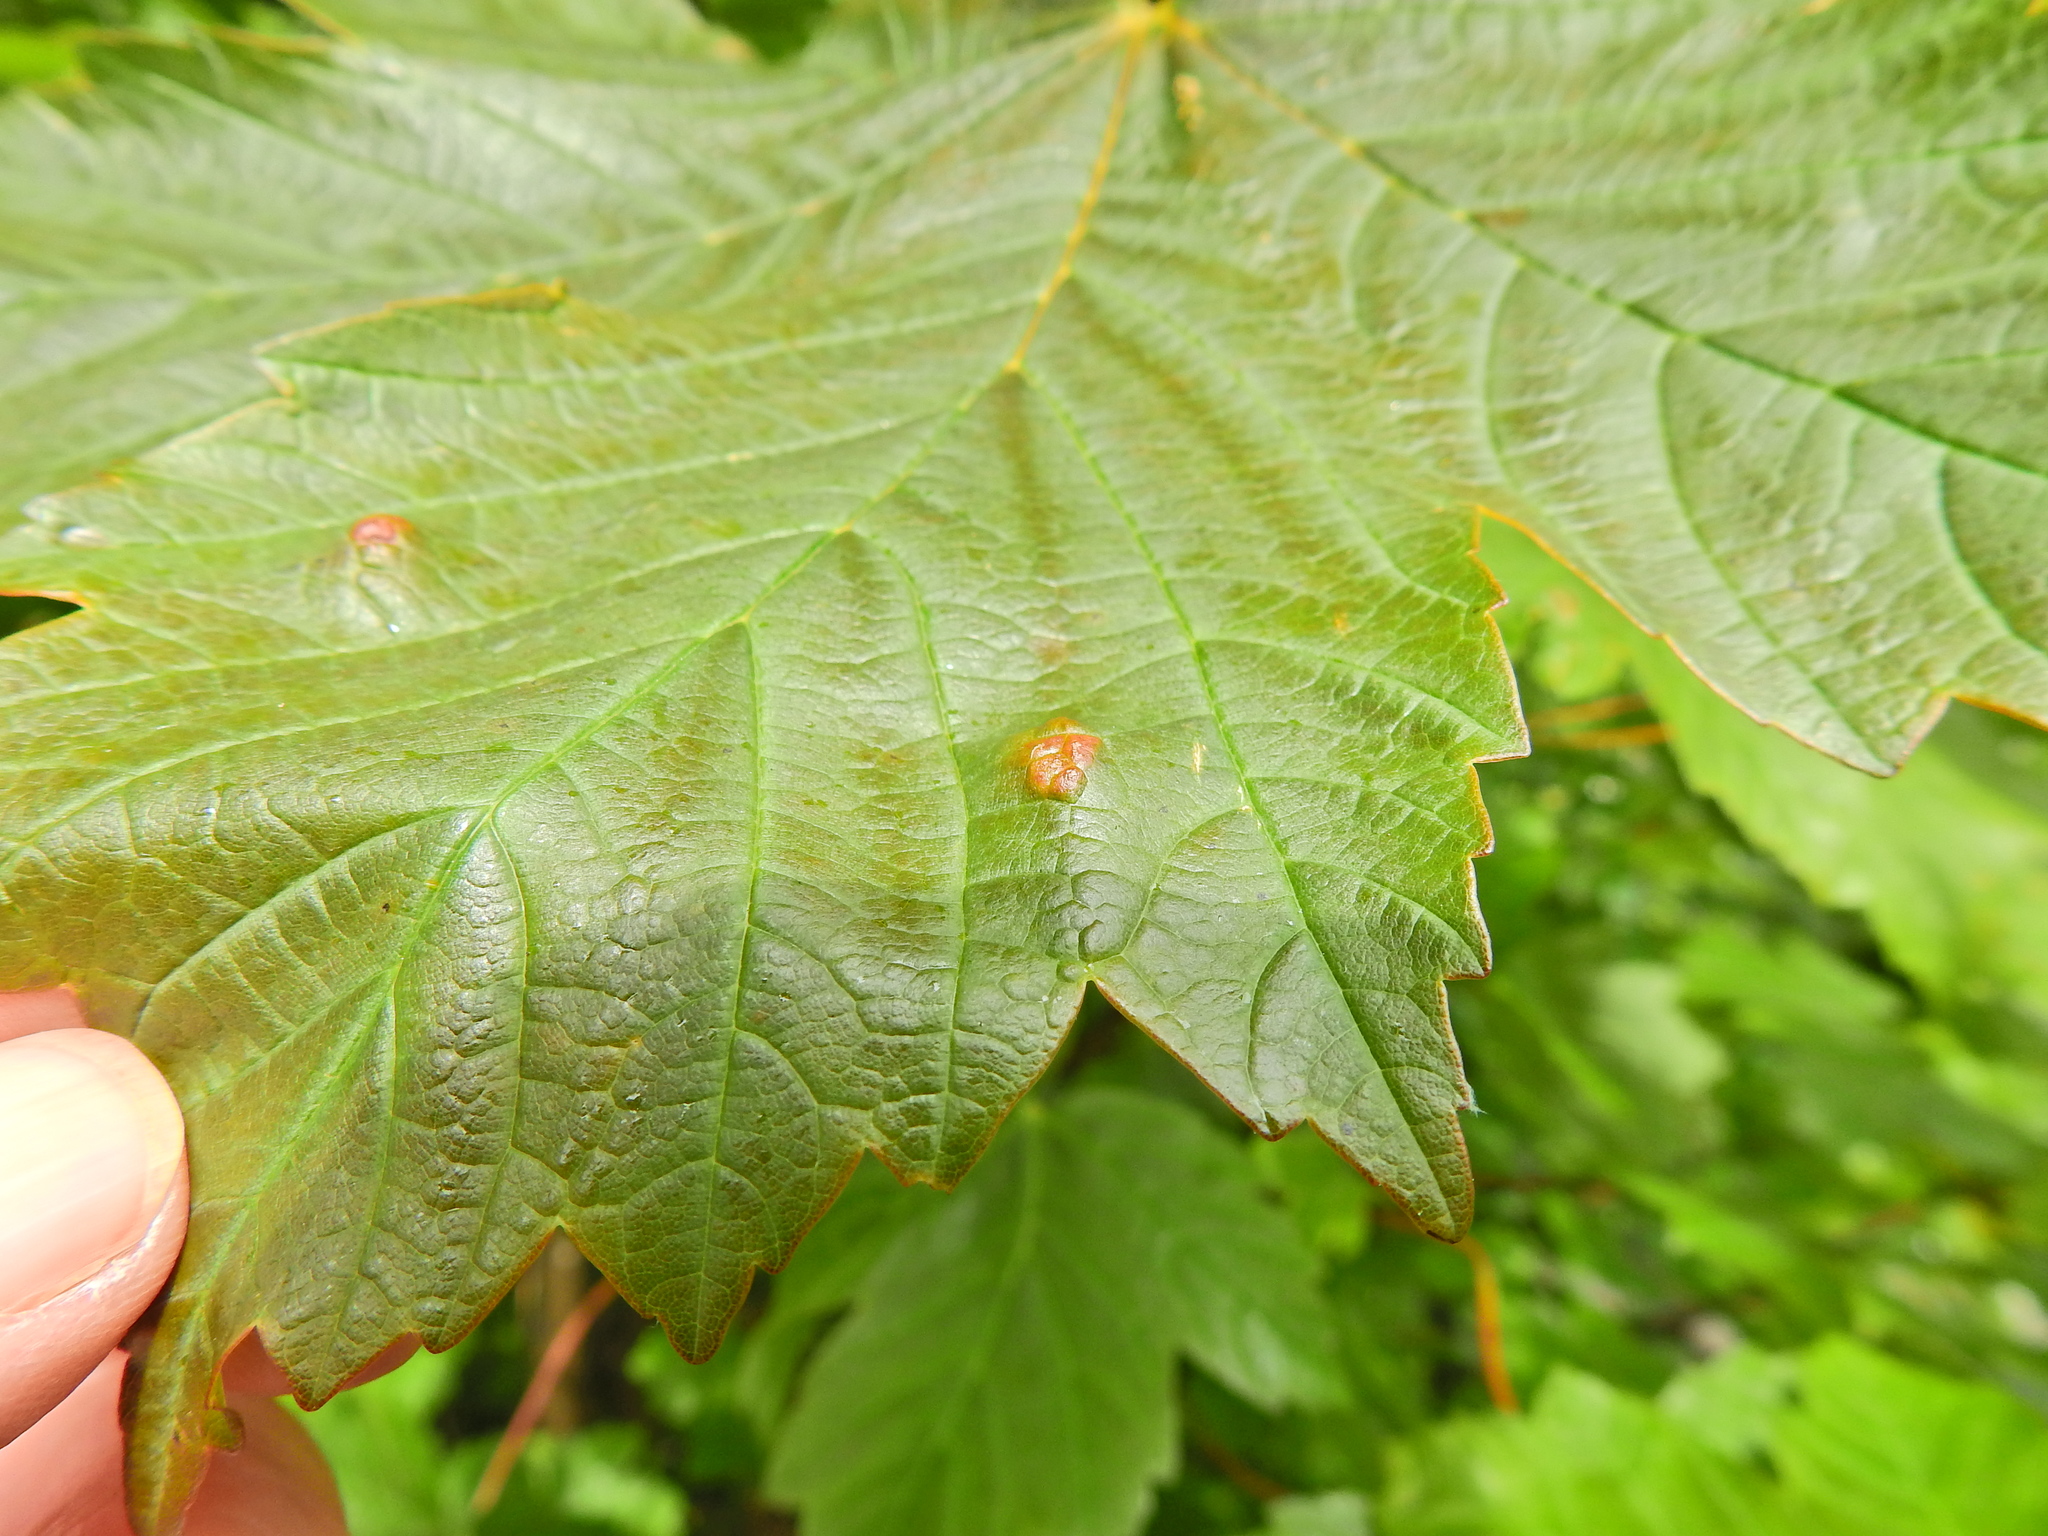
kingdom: Animalia
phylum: Arthropoda
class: Arachnida
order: Trombidiformes
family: Eriophyidae
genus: Aceria
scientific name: Aceria pseudoplatani
